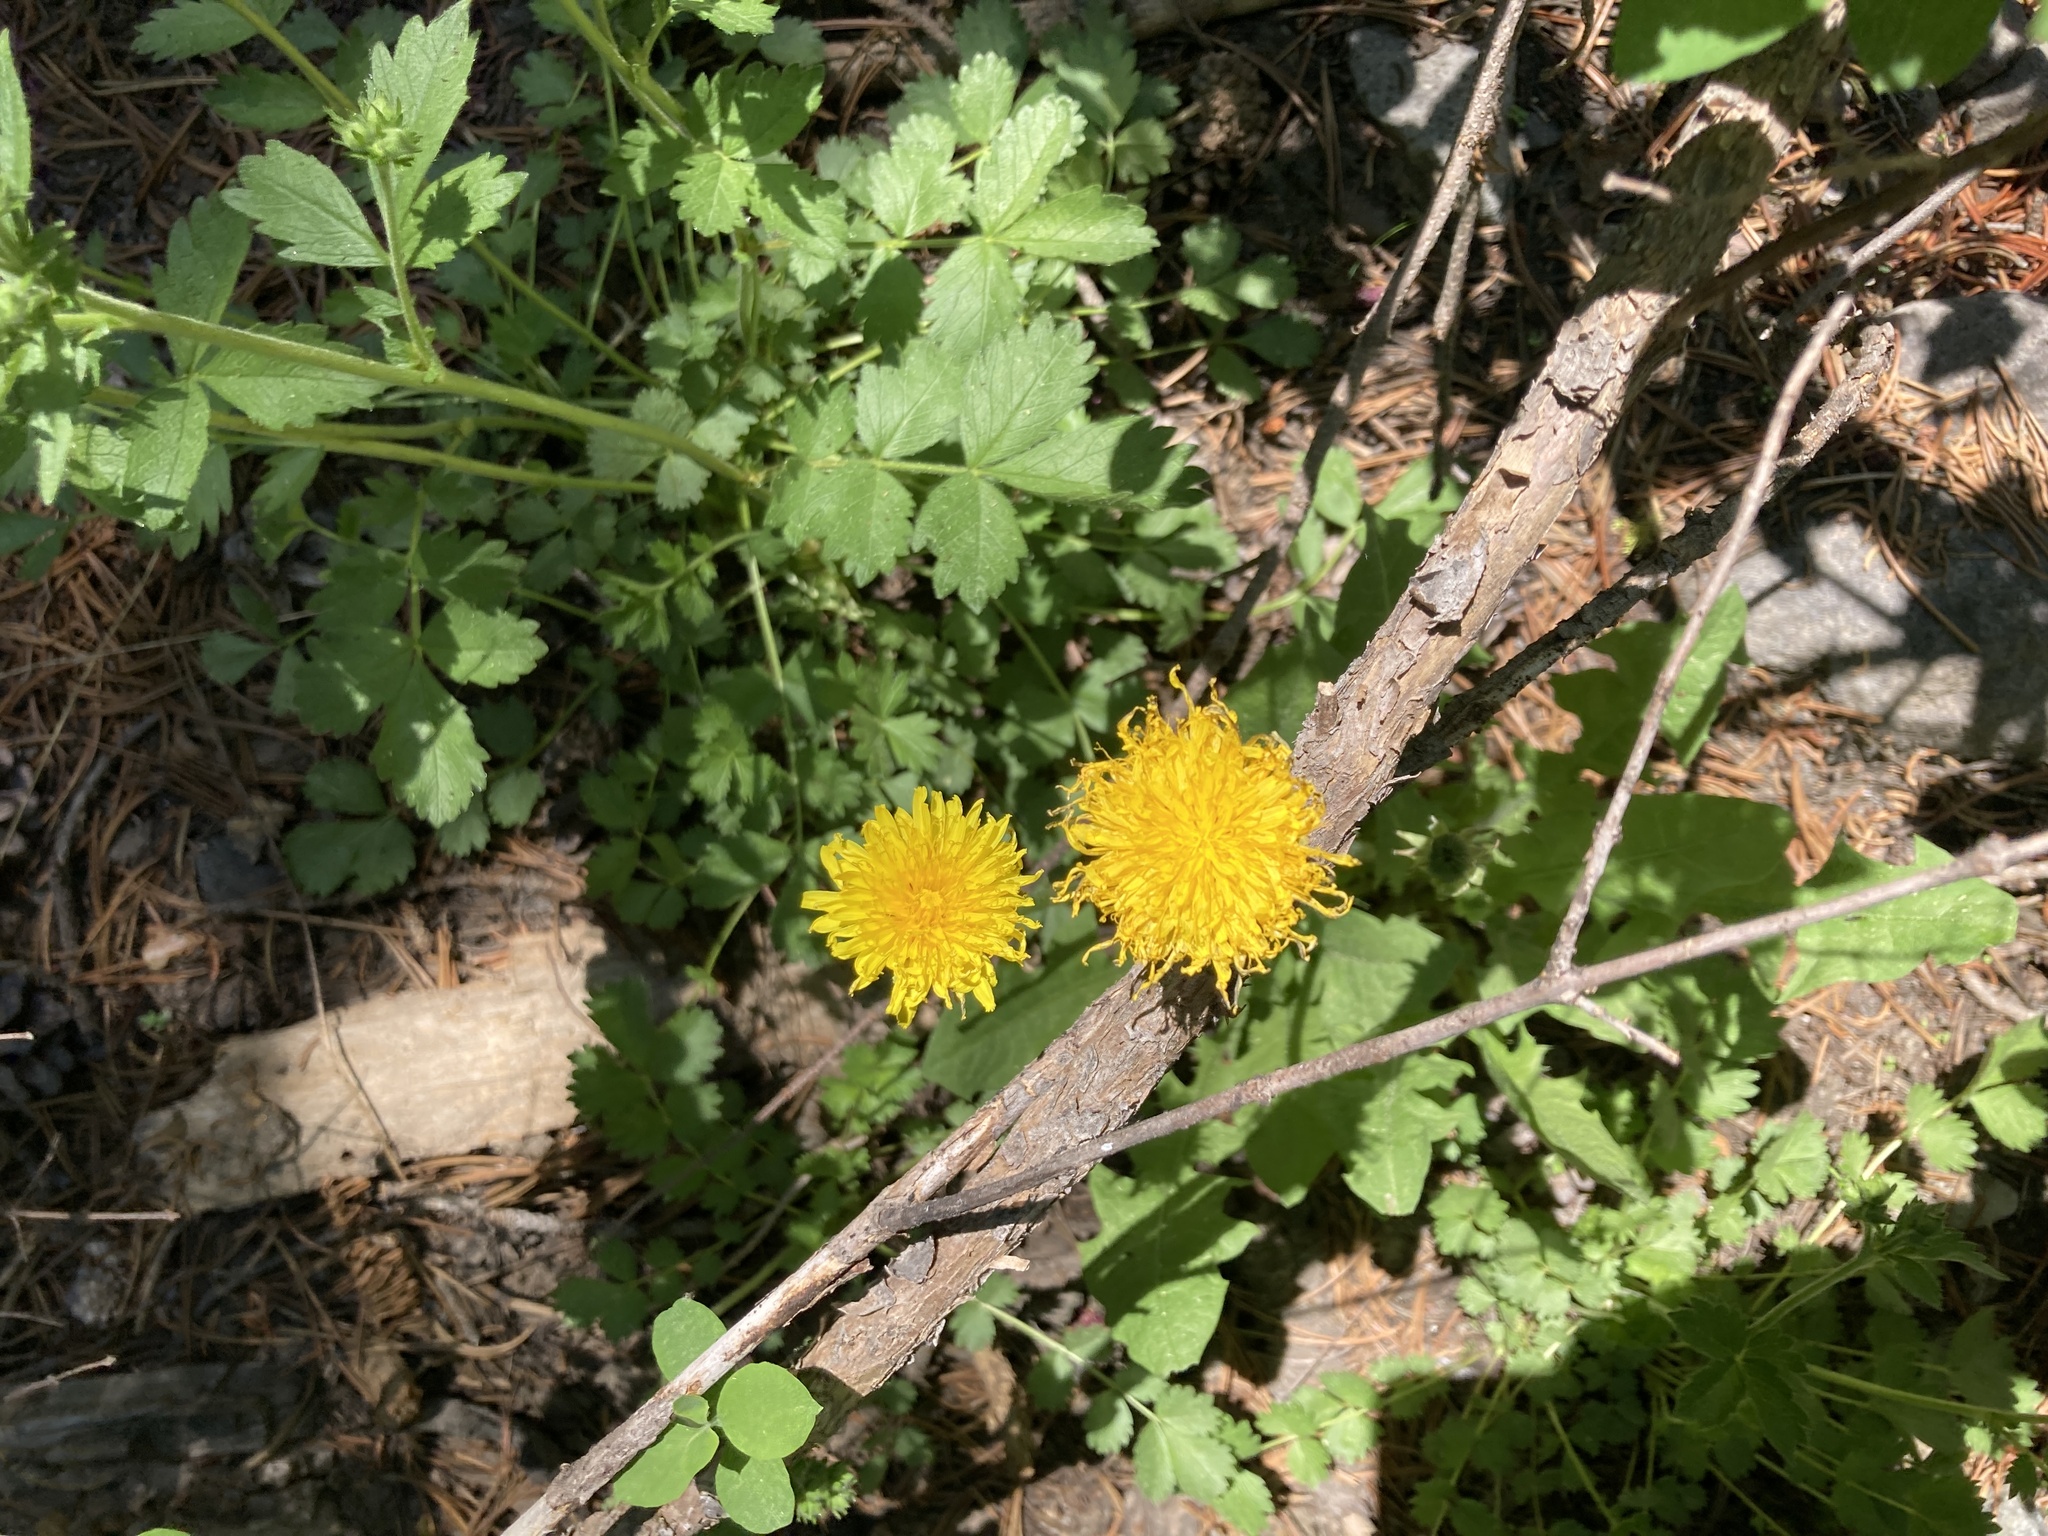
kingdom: Plantae
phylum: Tracheophyta
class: Magnoliopsida
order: Asterales
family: Asteraceae
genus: Taraxacum
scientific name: Taraxacum officinale
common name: Common dandelion
